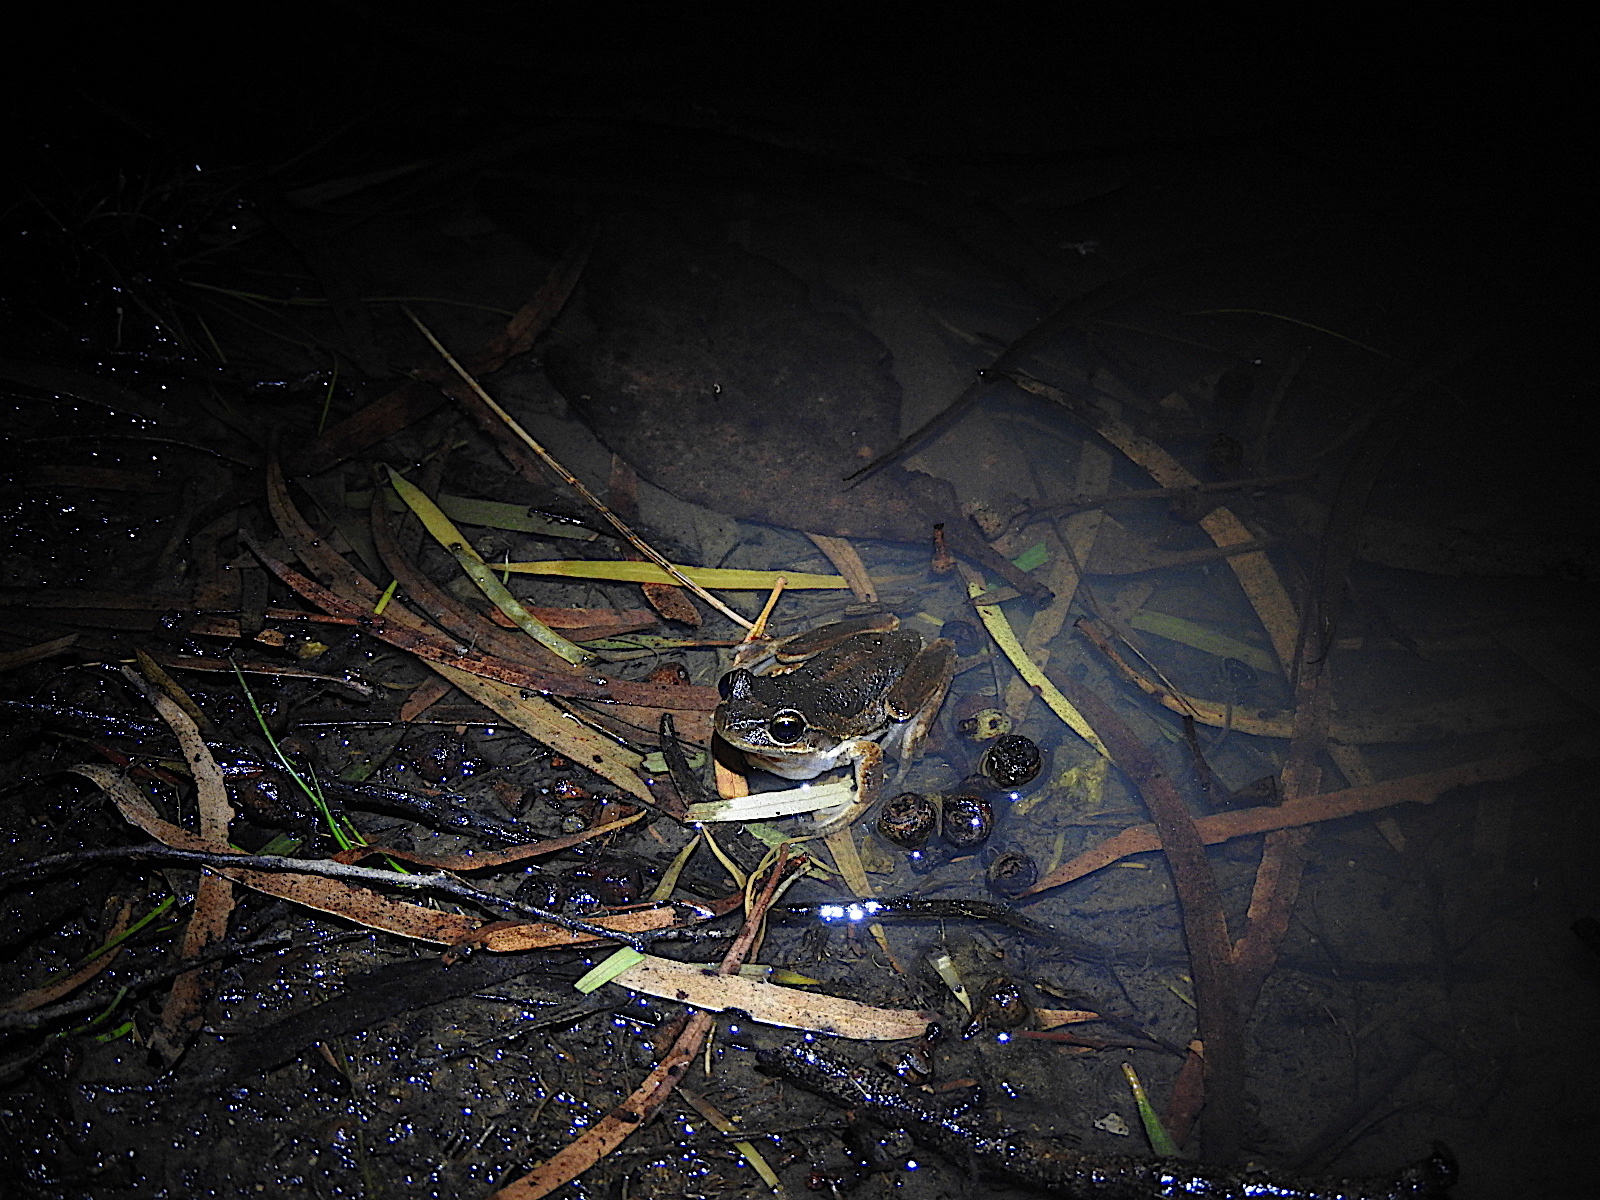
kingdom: Animalia
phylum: Chordata
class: Amphibia
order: Anura
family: Pelodryadidae
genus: Litoria
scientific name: Litoria ewingii
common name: Southern brown tree frog
